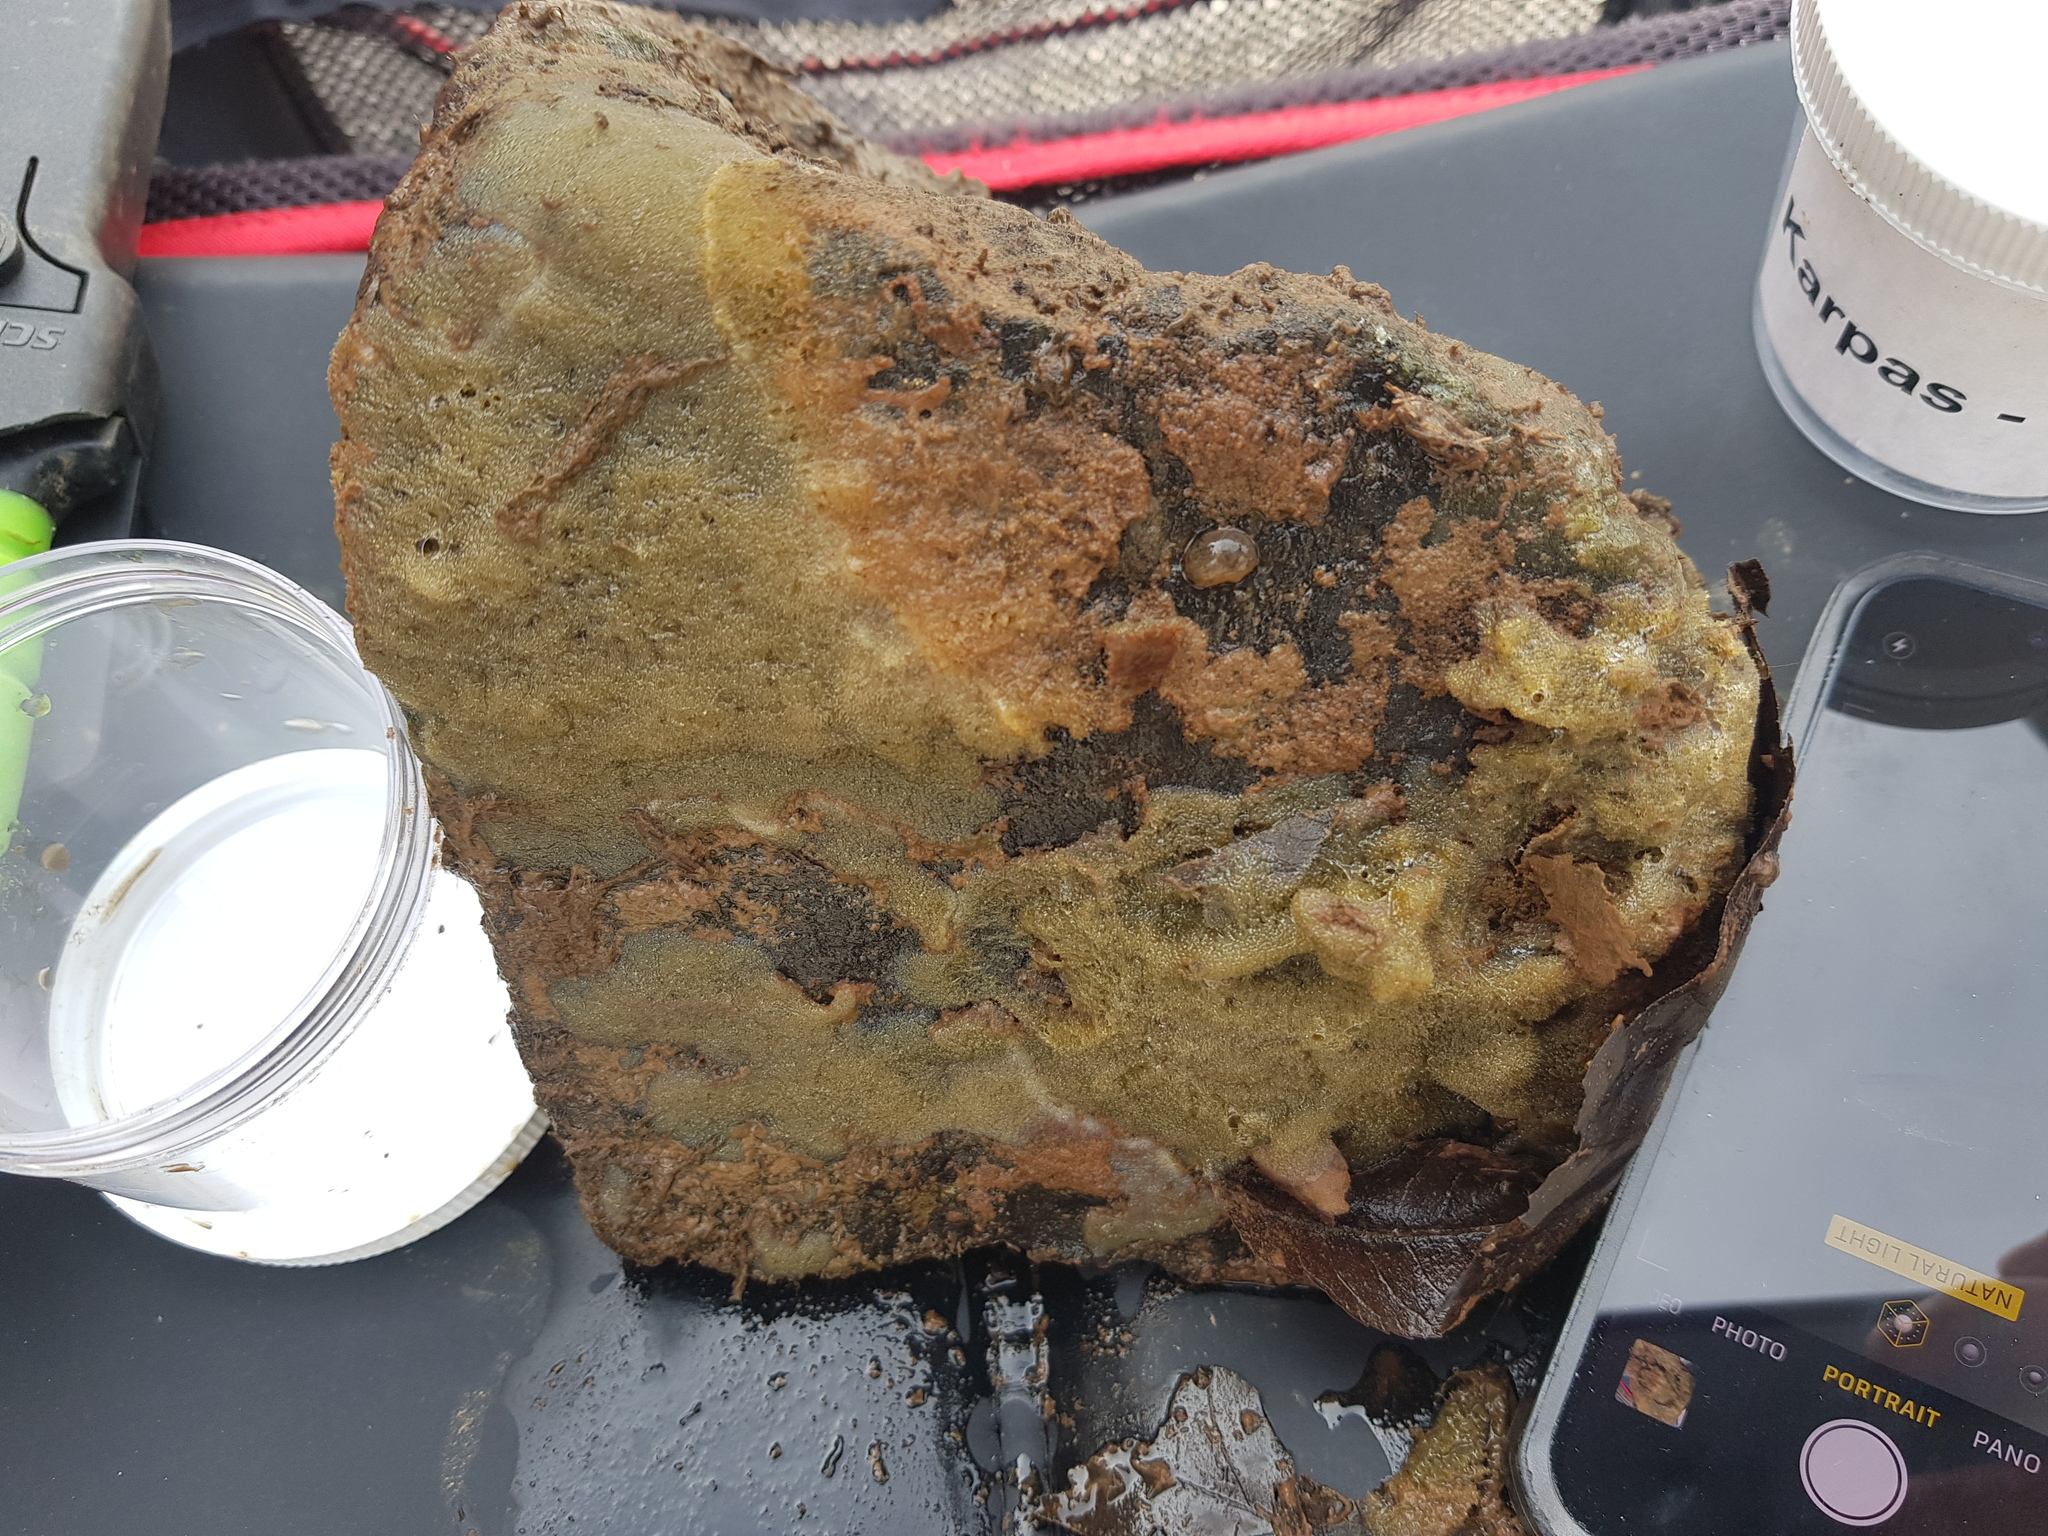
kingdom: Animalia
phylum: Porifera
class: Demospongiae
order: Spongillida
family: Spongillidae
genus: Ephydatia
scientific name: Ephydatia fluviatilis
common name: Brackish water freshwater sponge
